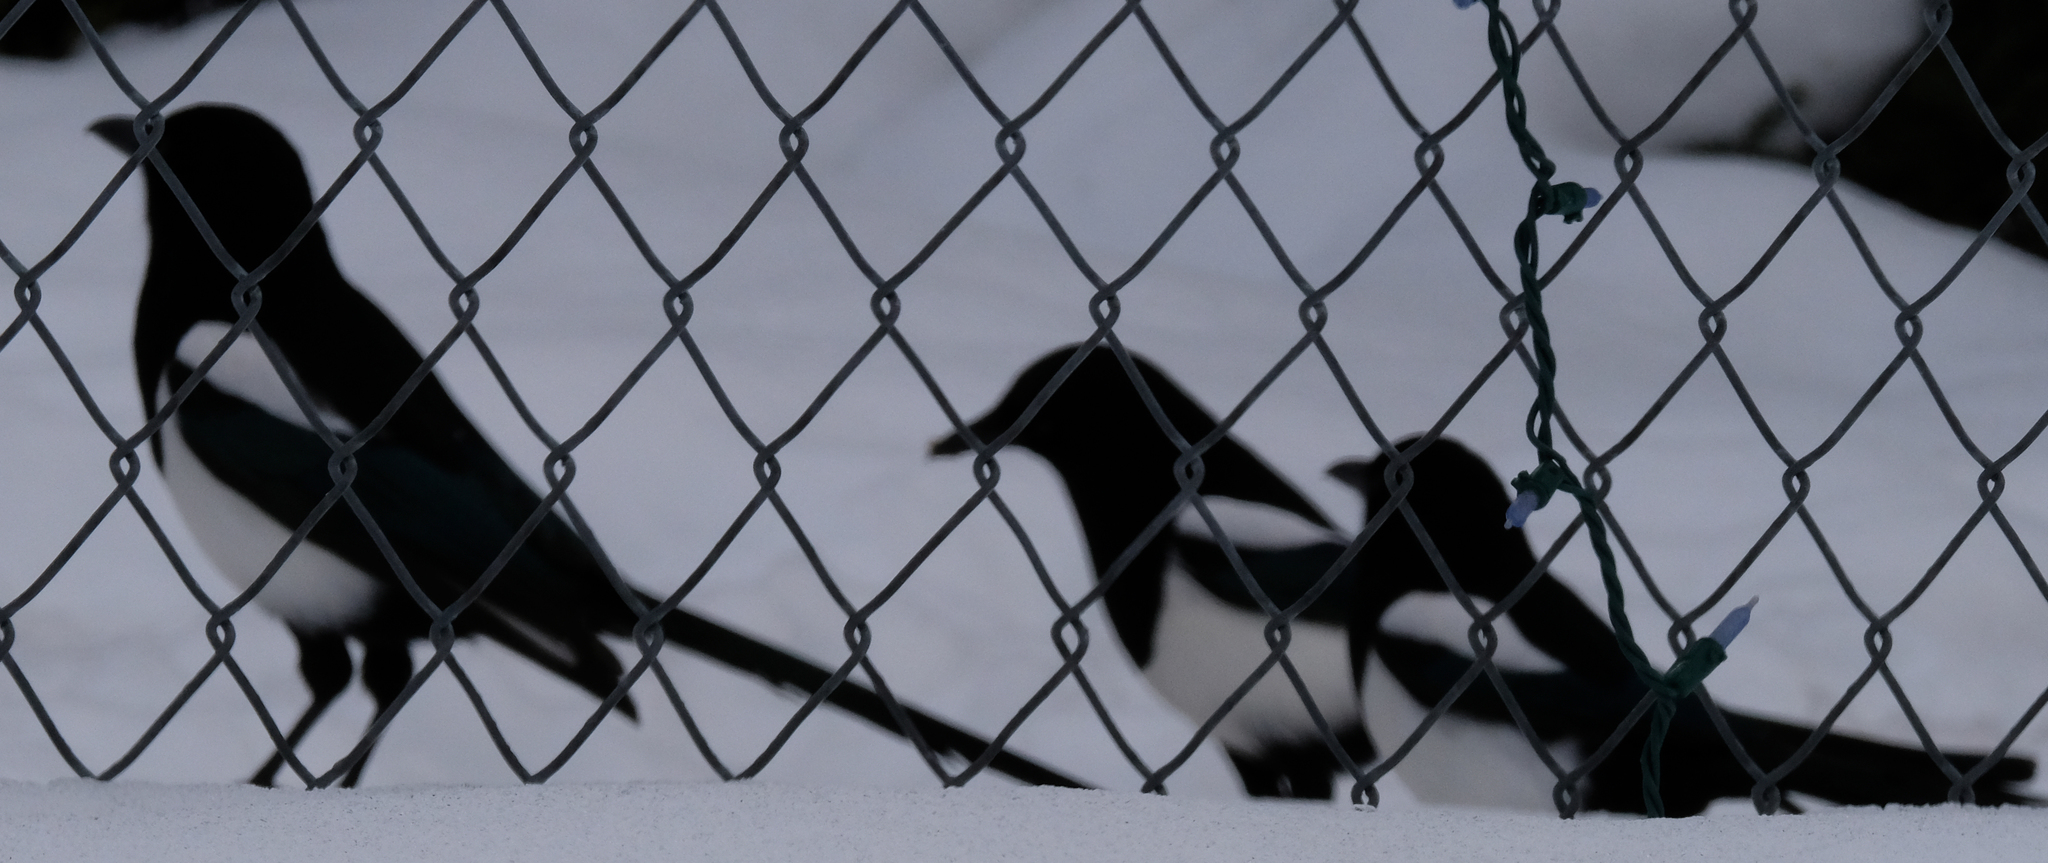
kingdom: Animalia
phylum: Chordata
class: Aves
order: Passeriformes
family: Corvidae
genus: Pica
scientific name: Pica hudsonia
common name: Black-billed magpie
